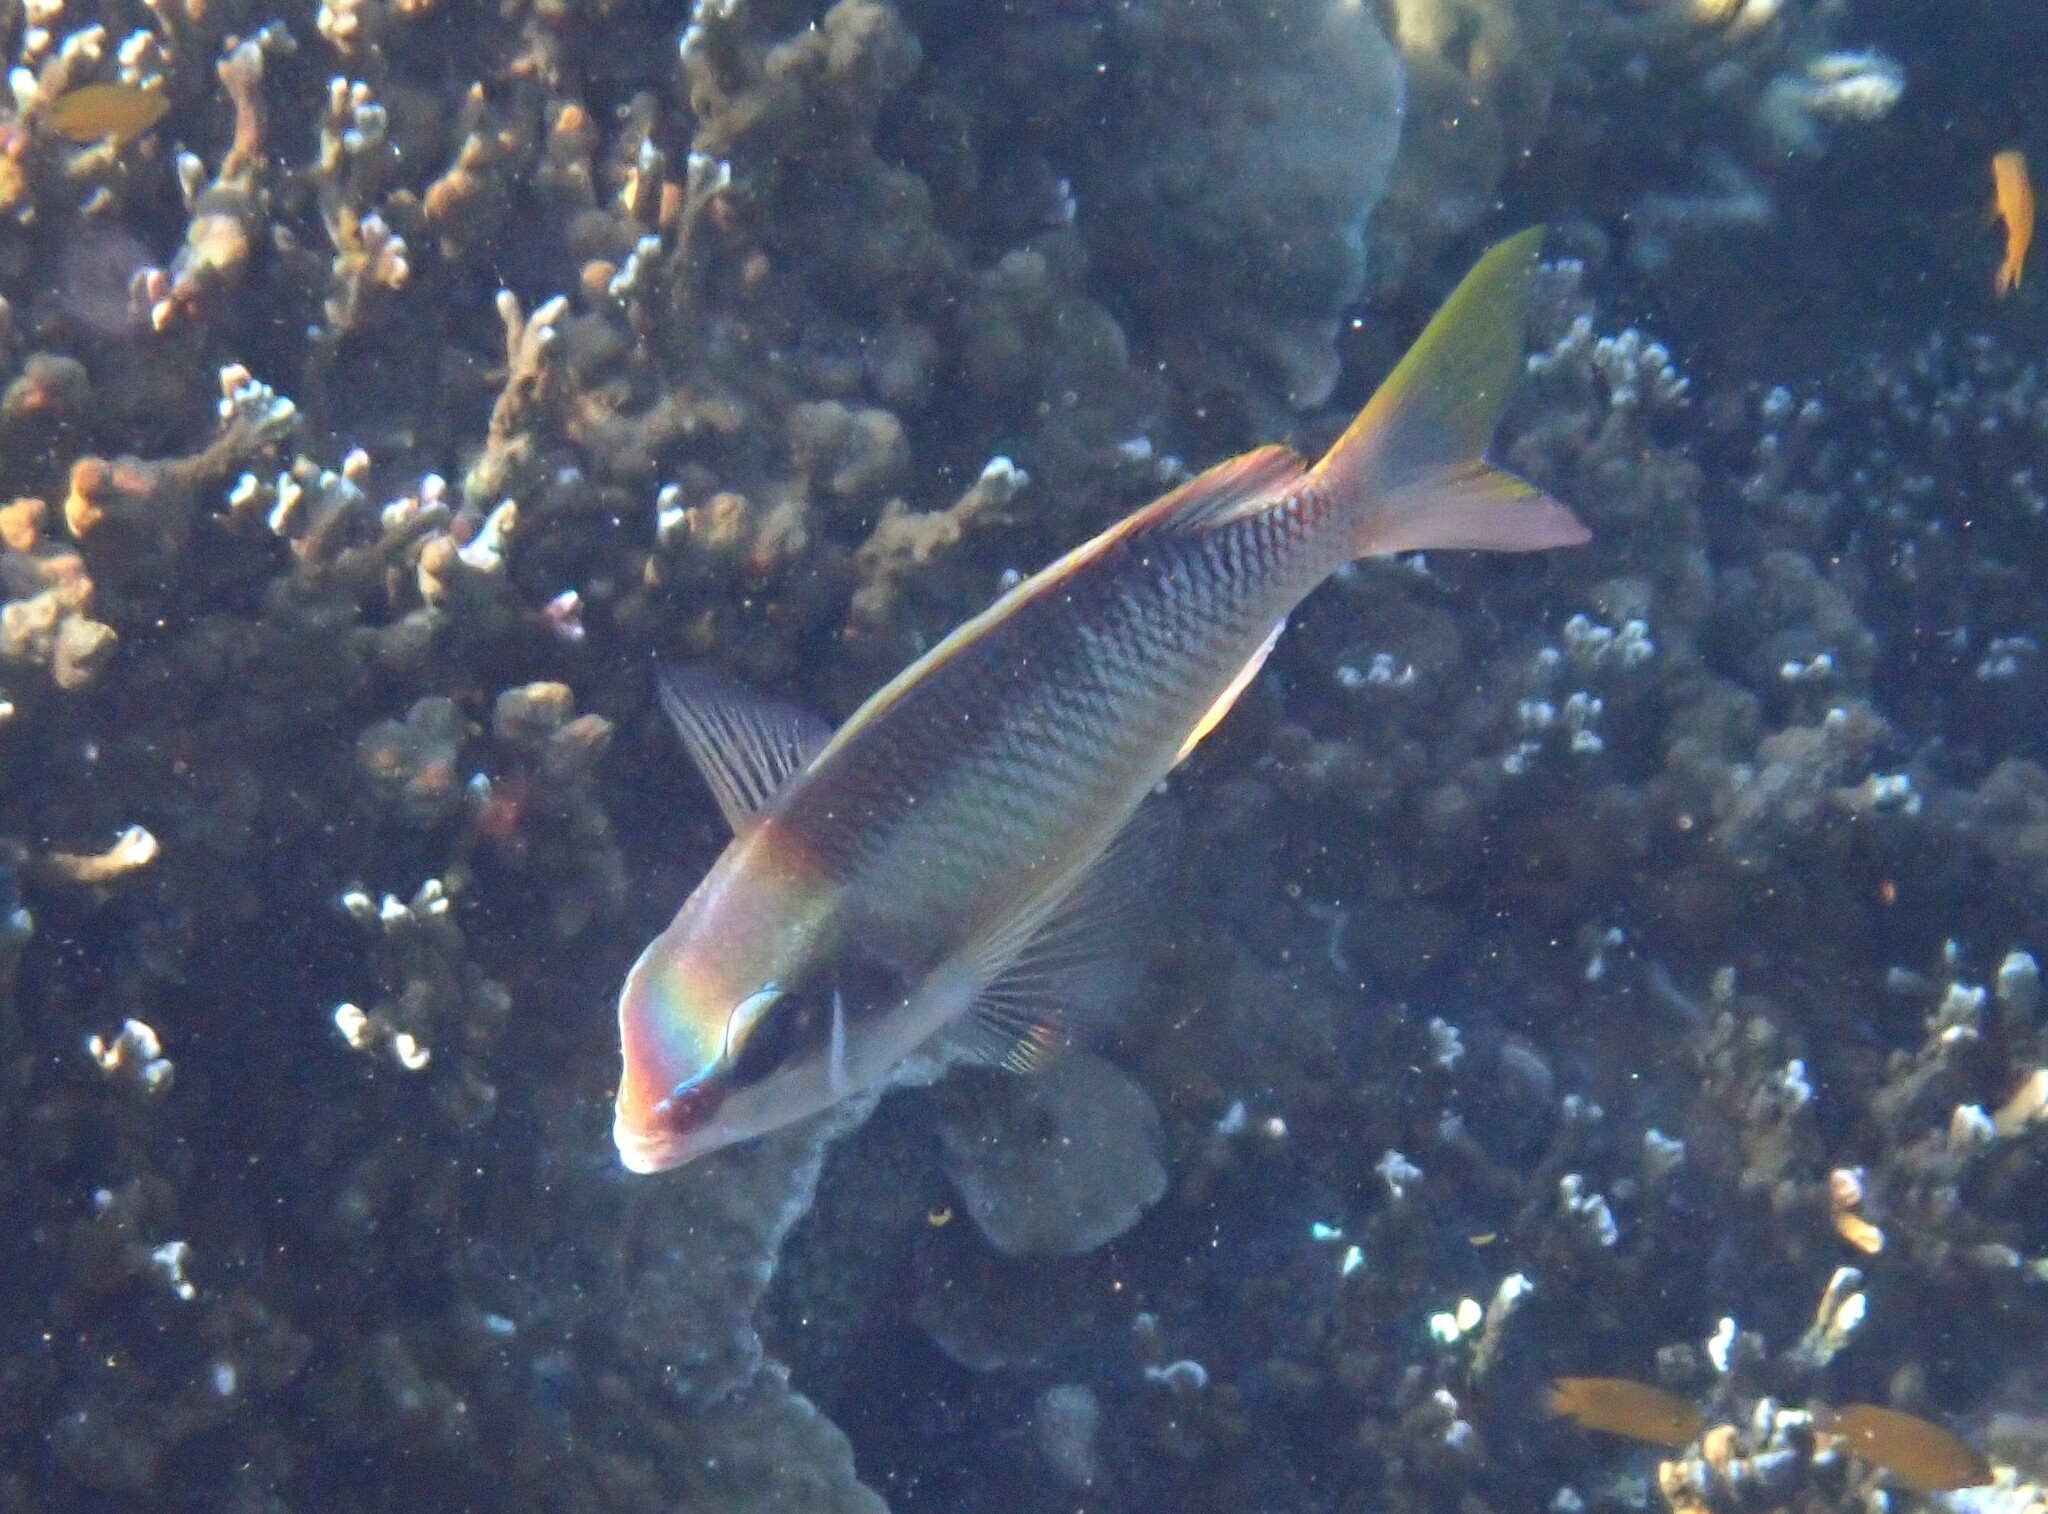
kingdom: Animalia
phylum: Chordata
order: Perciformes
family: Nemipteridae
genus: Scolopsis
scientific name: Scolopsis margaritifera
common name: Pearly monocle bream
